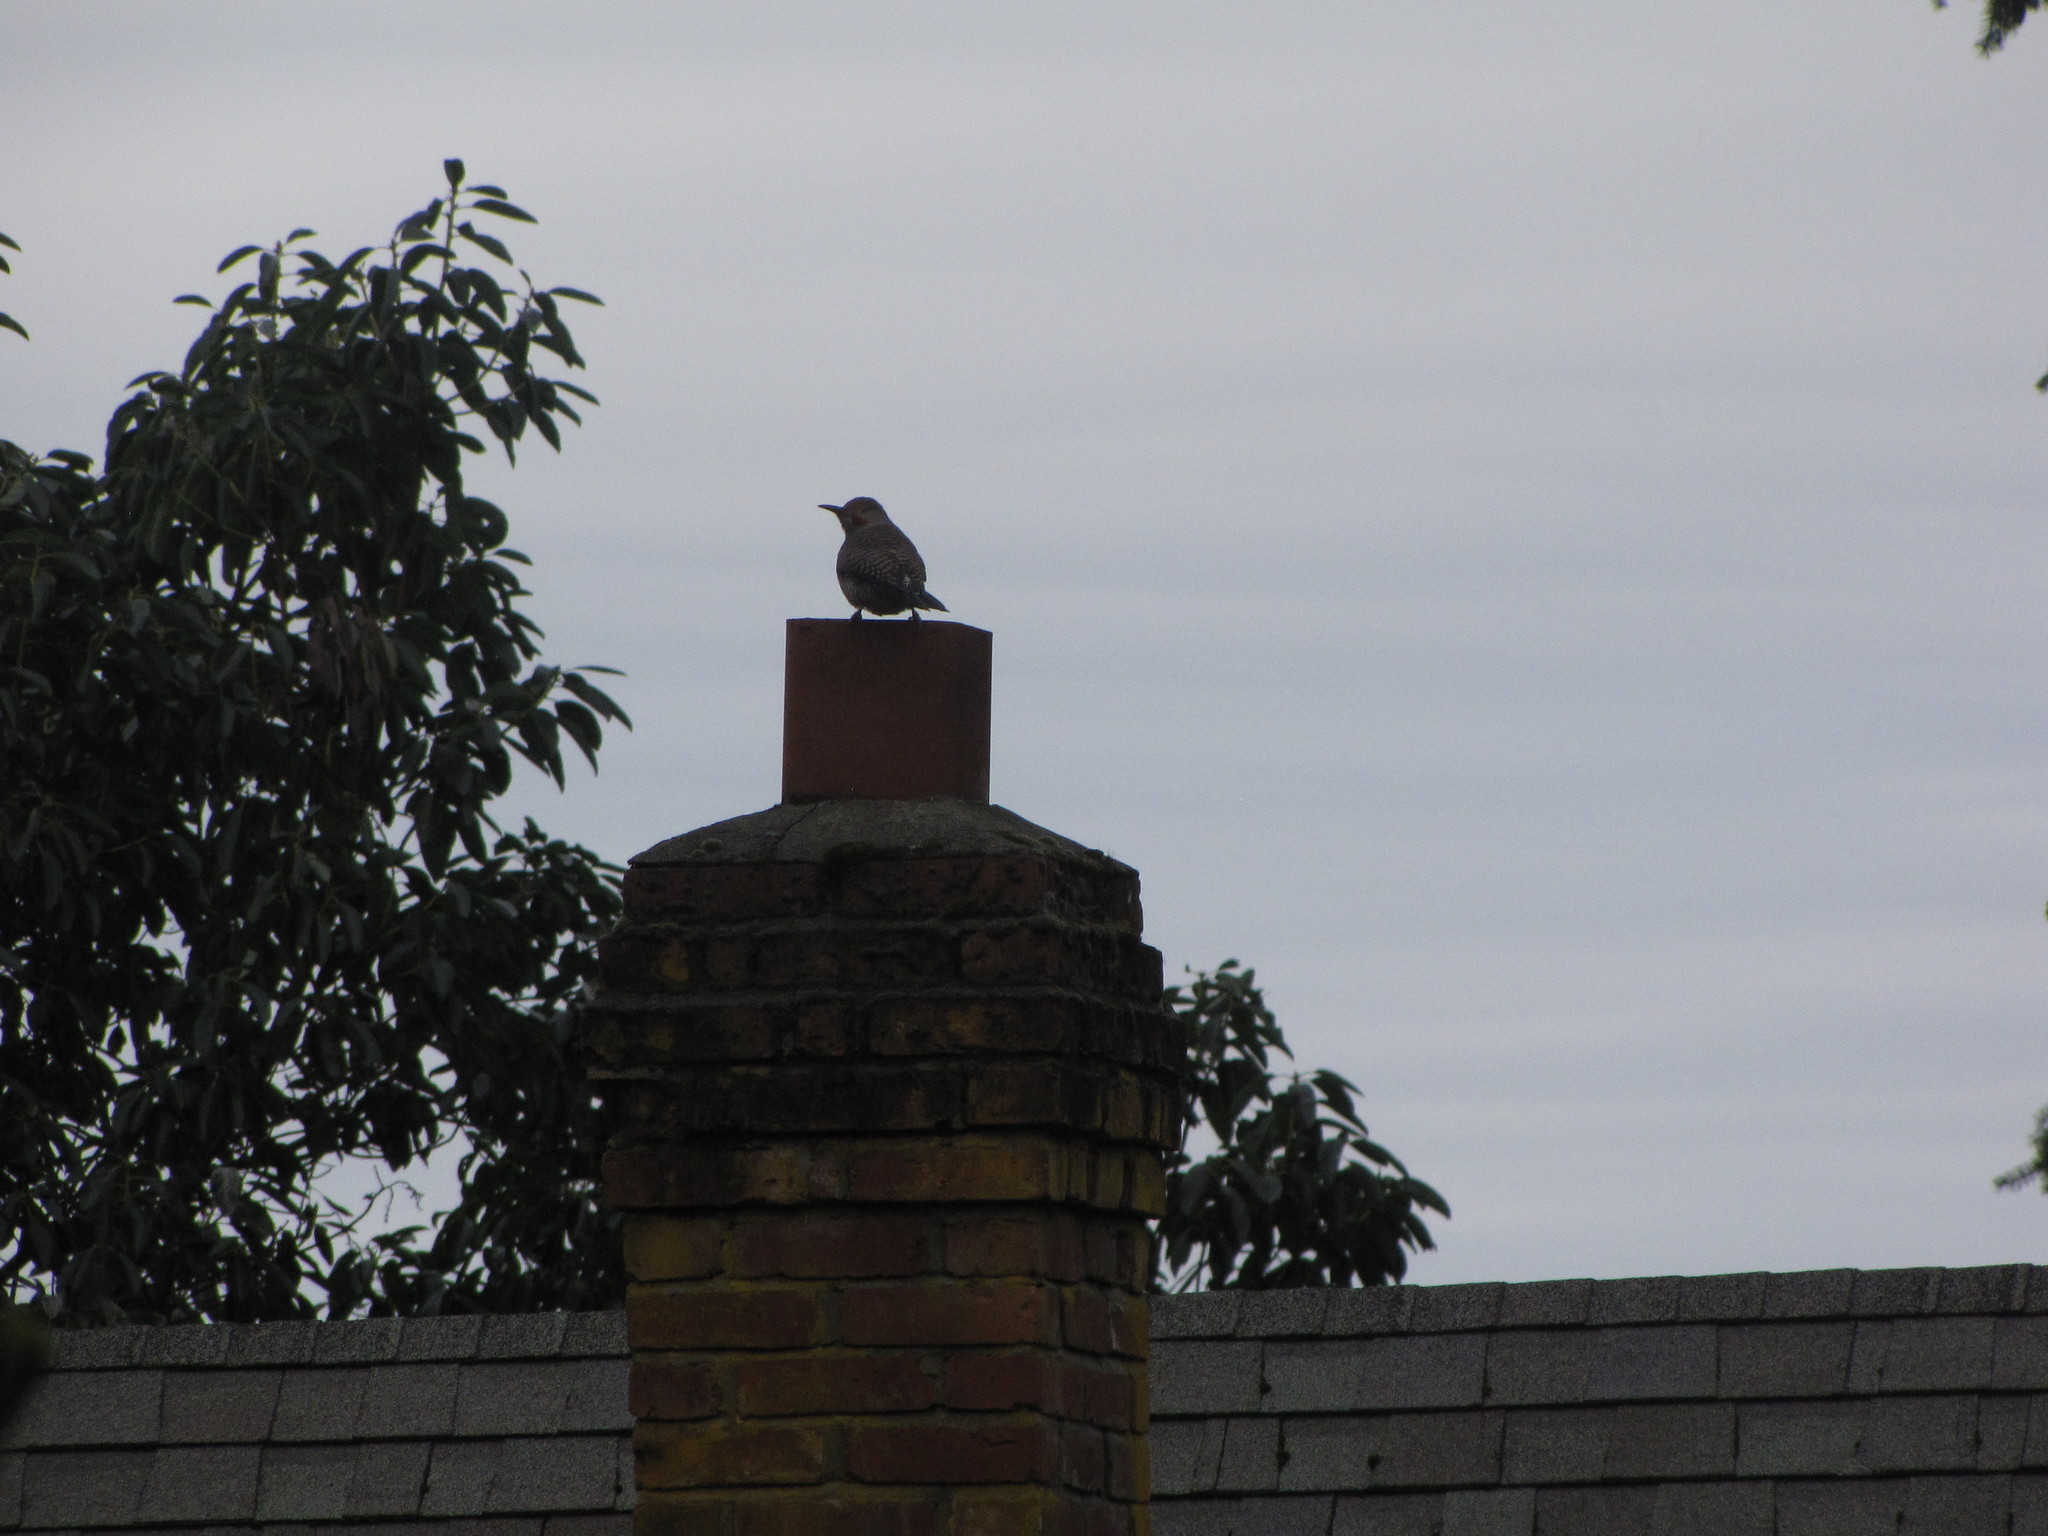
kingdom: Animalia
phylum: Chordata
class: Aves
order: Piciformes
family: Picidae
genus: Colaptes
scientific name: Colaptes auratus
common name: Northern flicker
